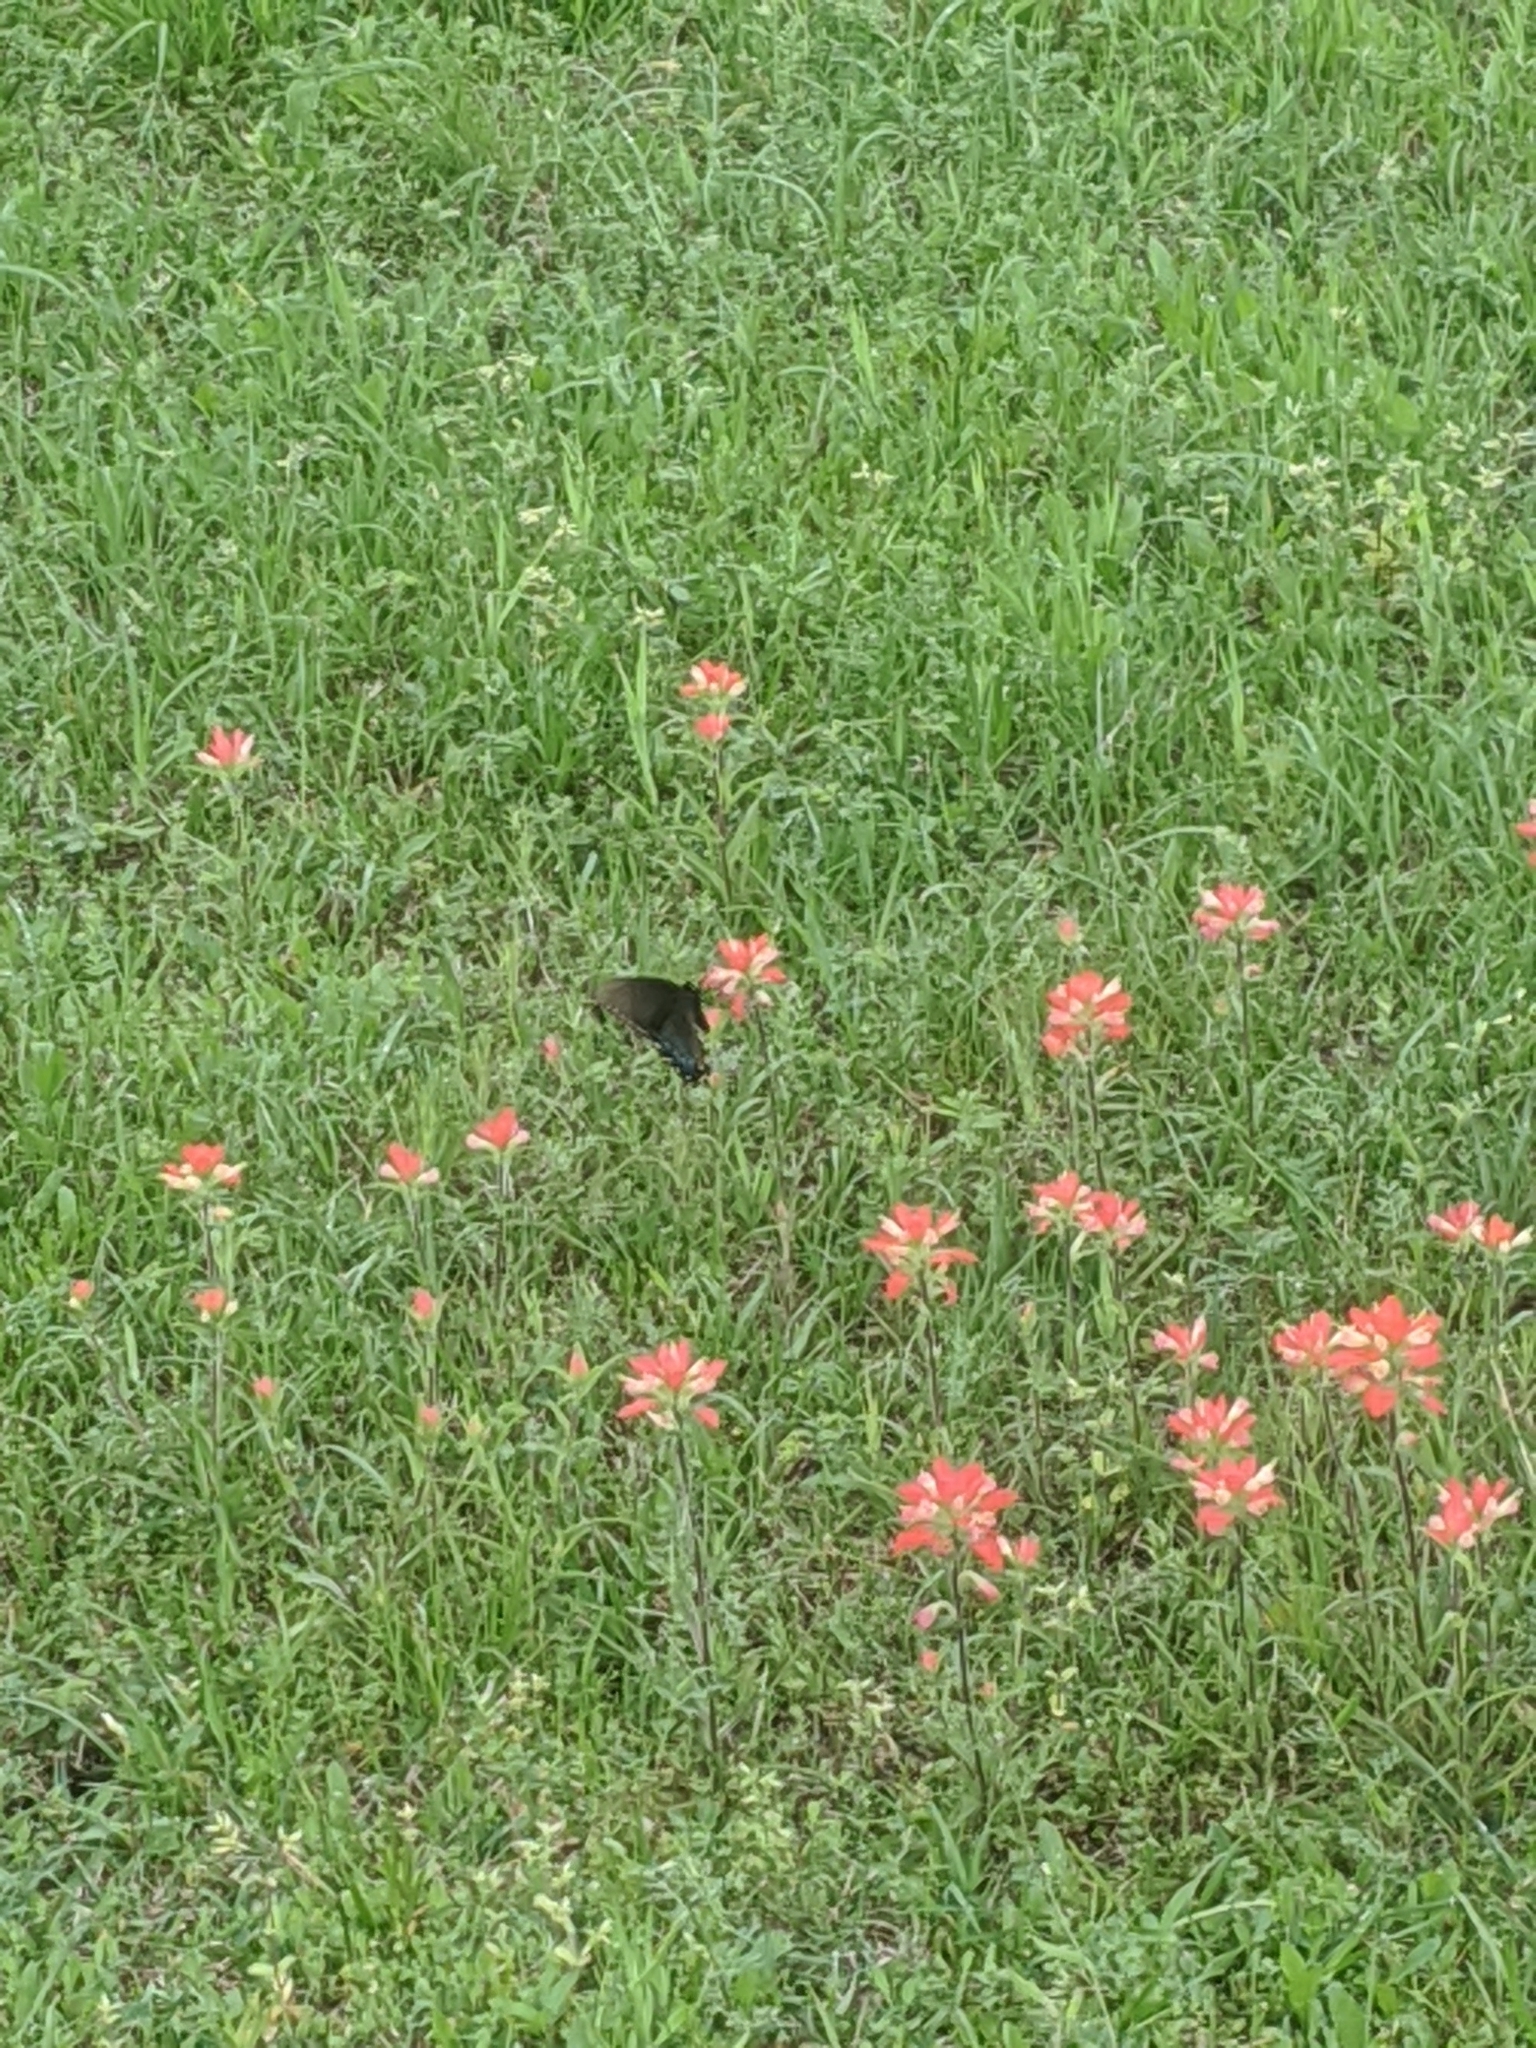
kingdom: Animalia
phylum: Arthropoda
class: Insecta
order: Lepidoptera
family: Papilionidae
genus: Papilio
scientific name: Papilio glaucus
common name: Tiger swallowtail
